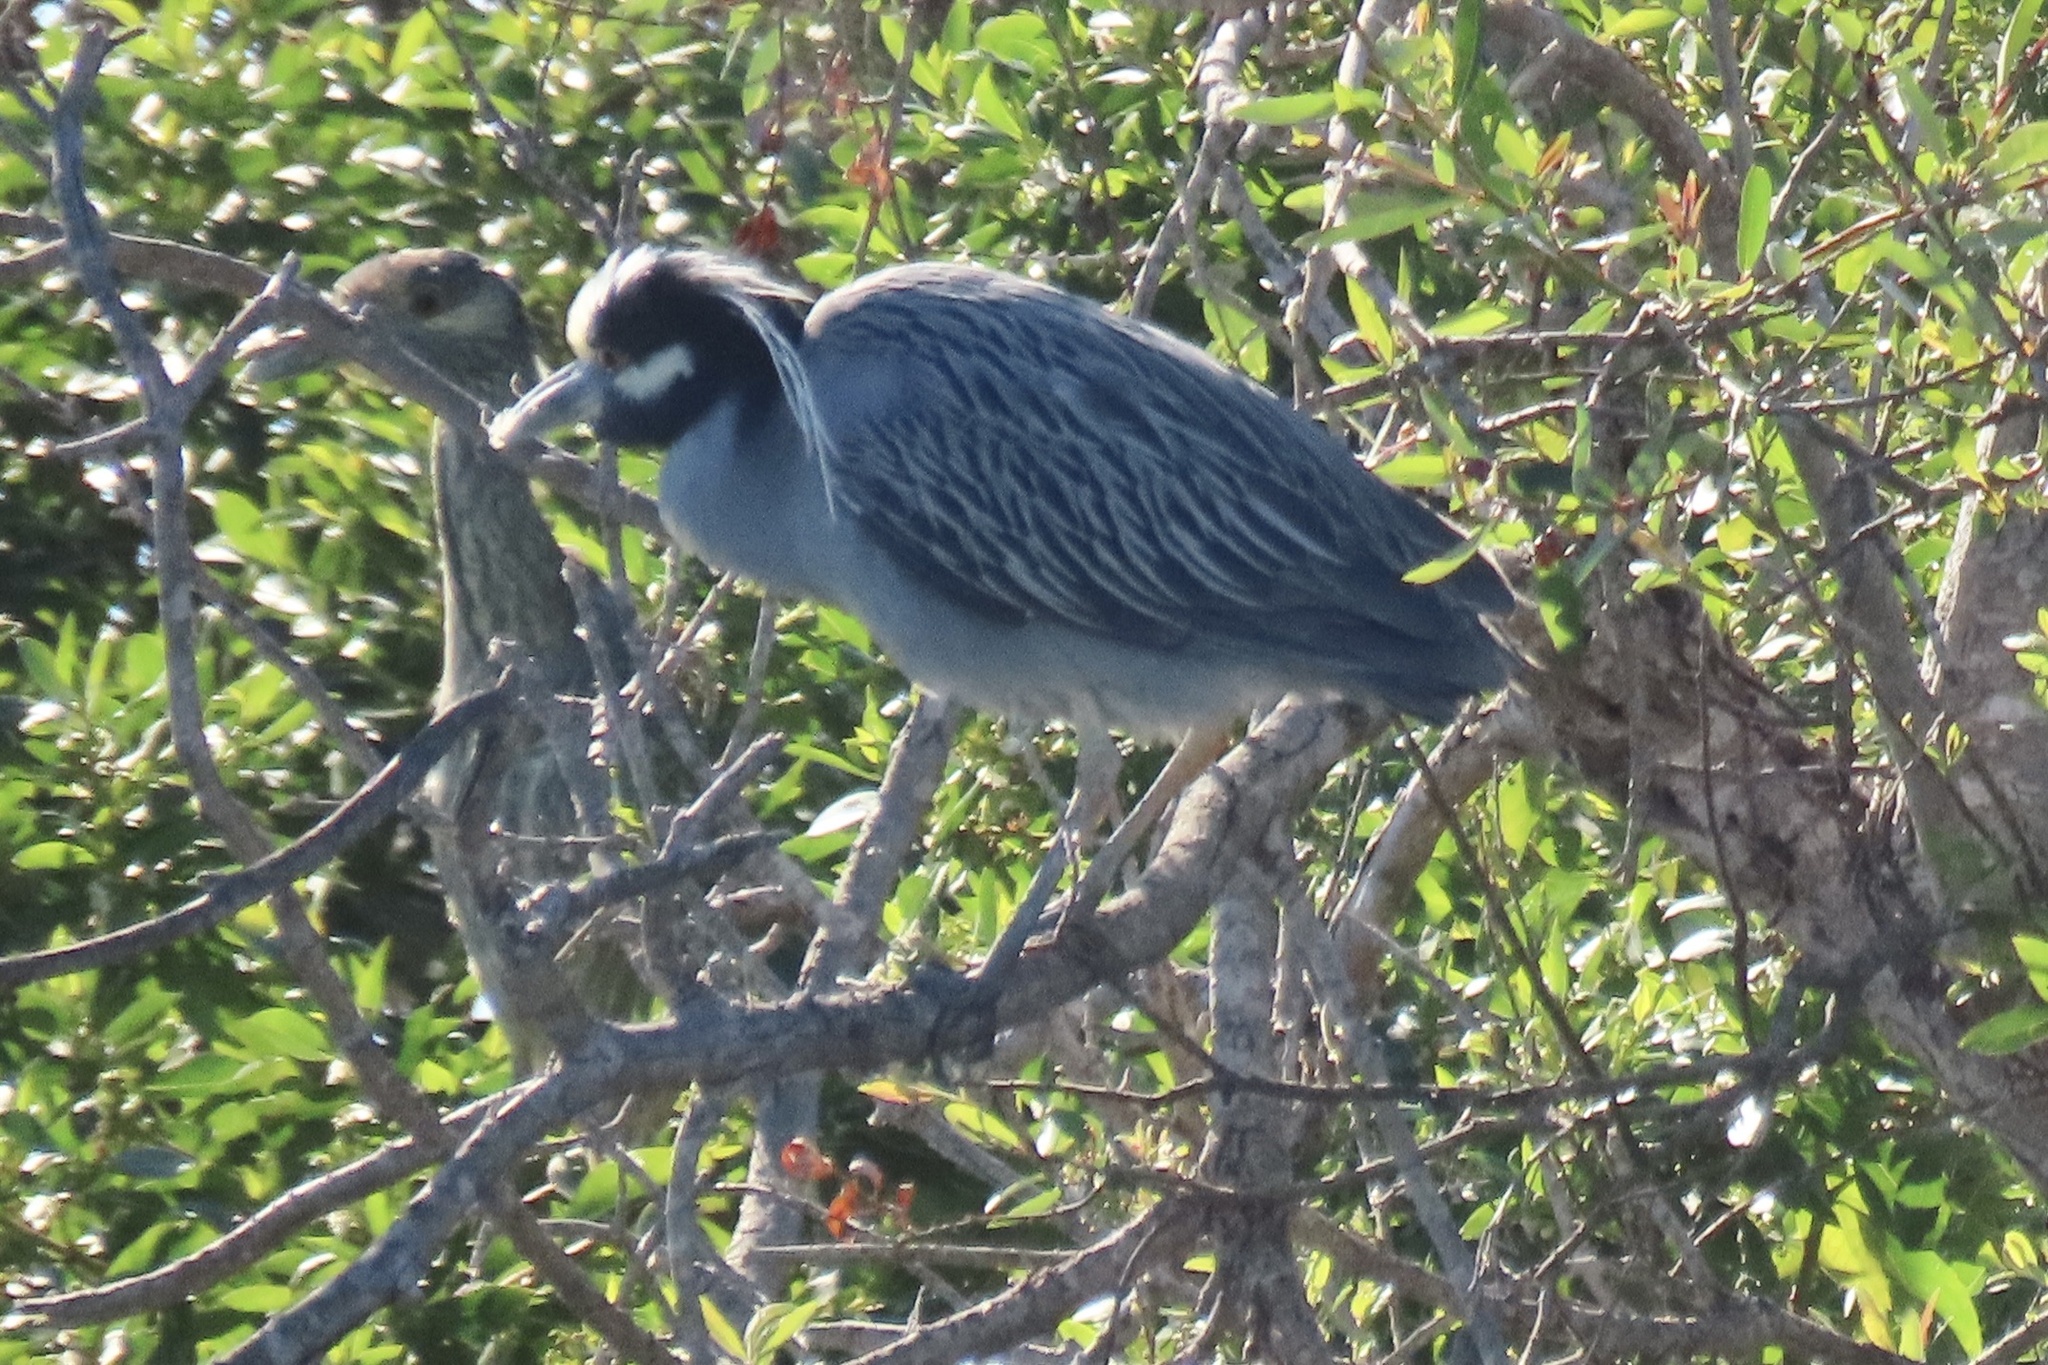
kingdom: Animalia
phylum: Chordata
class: Aves
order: Pelecaniformes
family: Ardeidae
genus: Nyctanassa
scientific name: Nyctanassa violacea
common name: Yellow-crowned night heron
